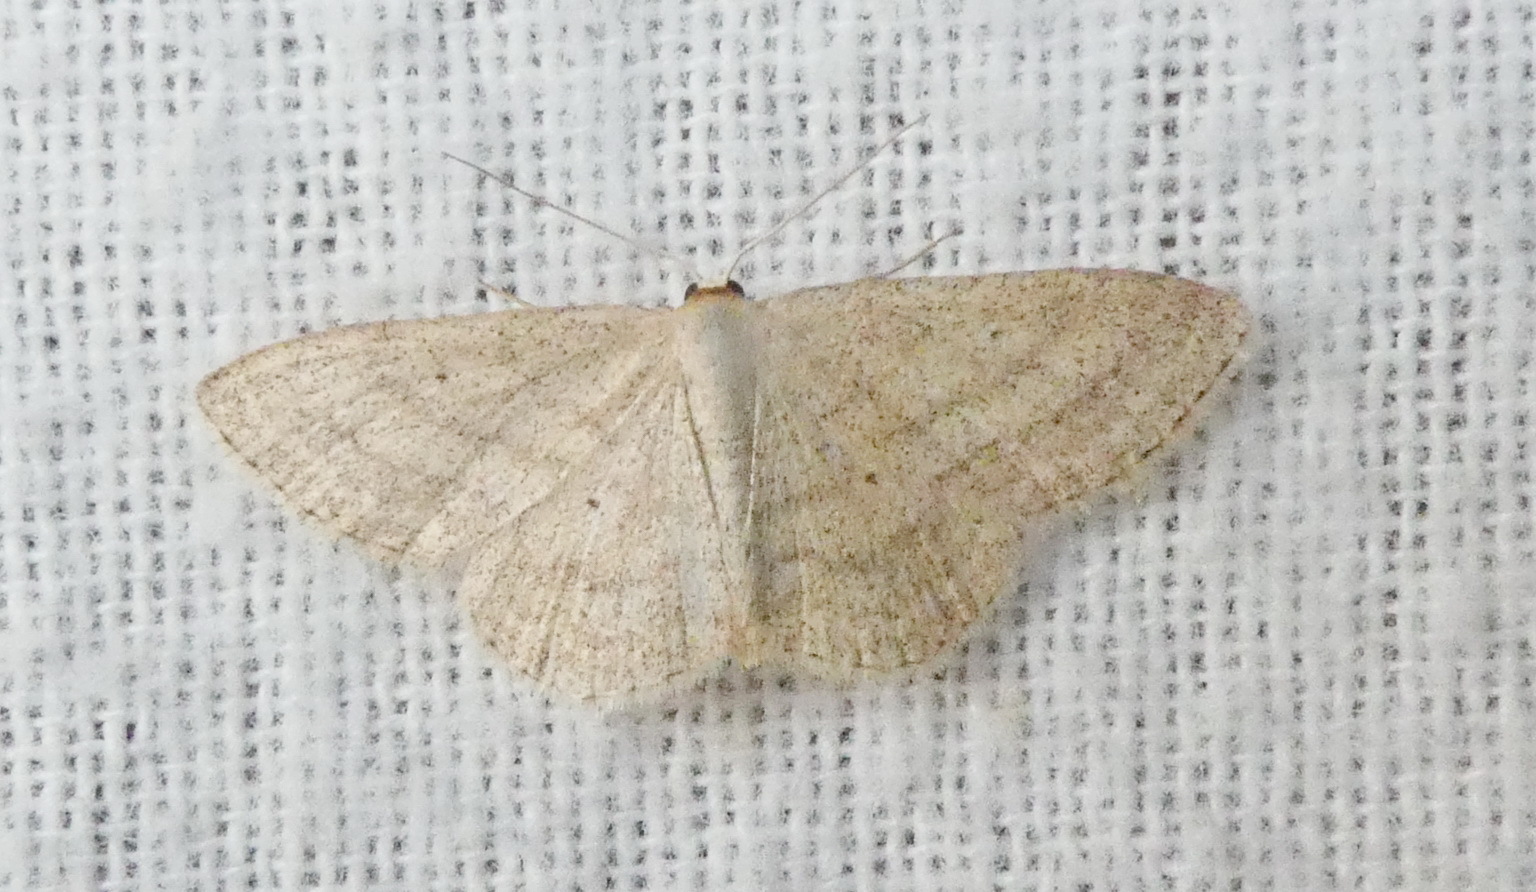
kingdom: Animalia
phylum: Arthropoda
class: Insecta
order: Lepidoptera
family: Geometridae
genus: Scopula
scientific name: Scopula inductata
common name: Soft-lined wave
